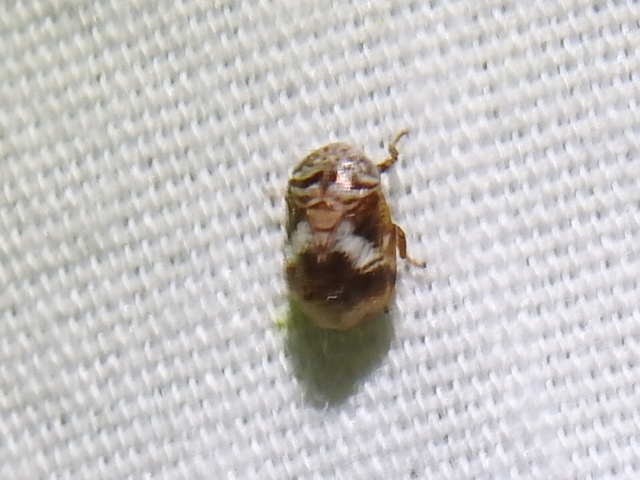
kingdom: Animalia
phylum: Arthropoda
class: Insecta
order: Hemiptera
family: Clastopteridae
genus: Clastoptera
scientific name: Clastoptera
